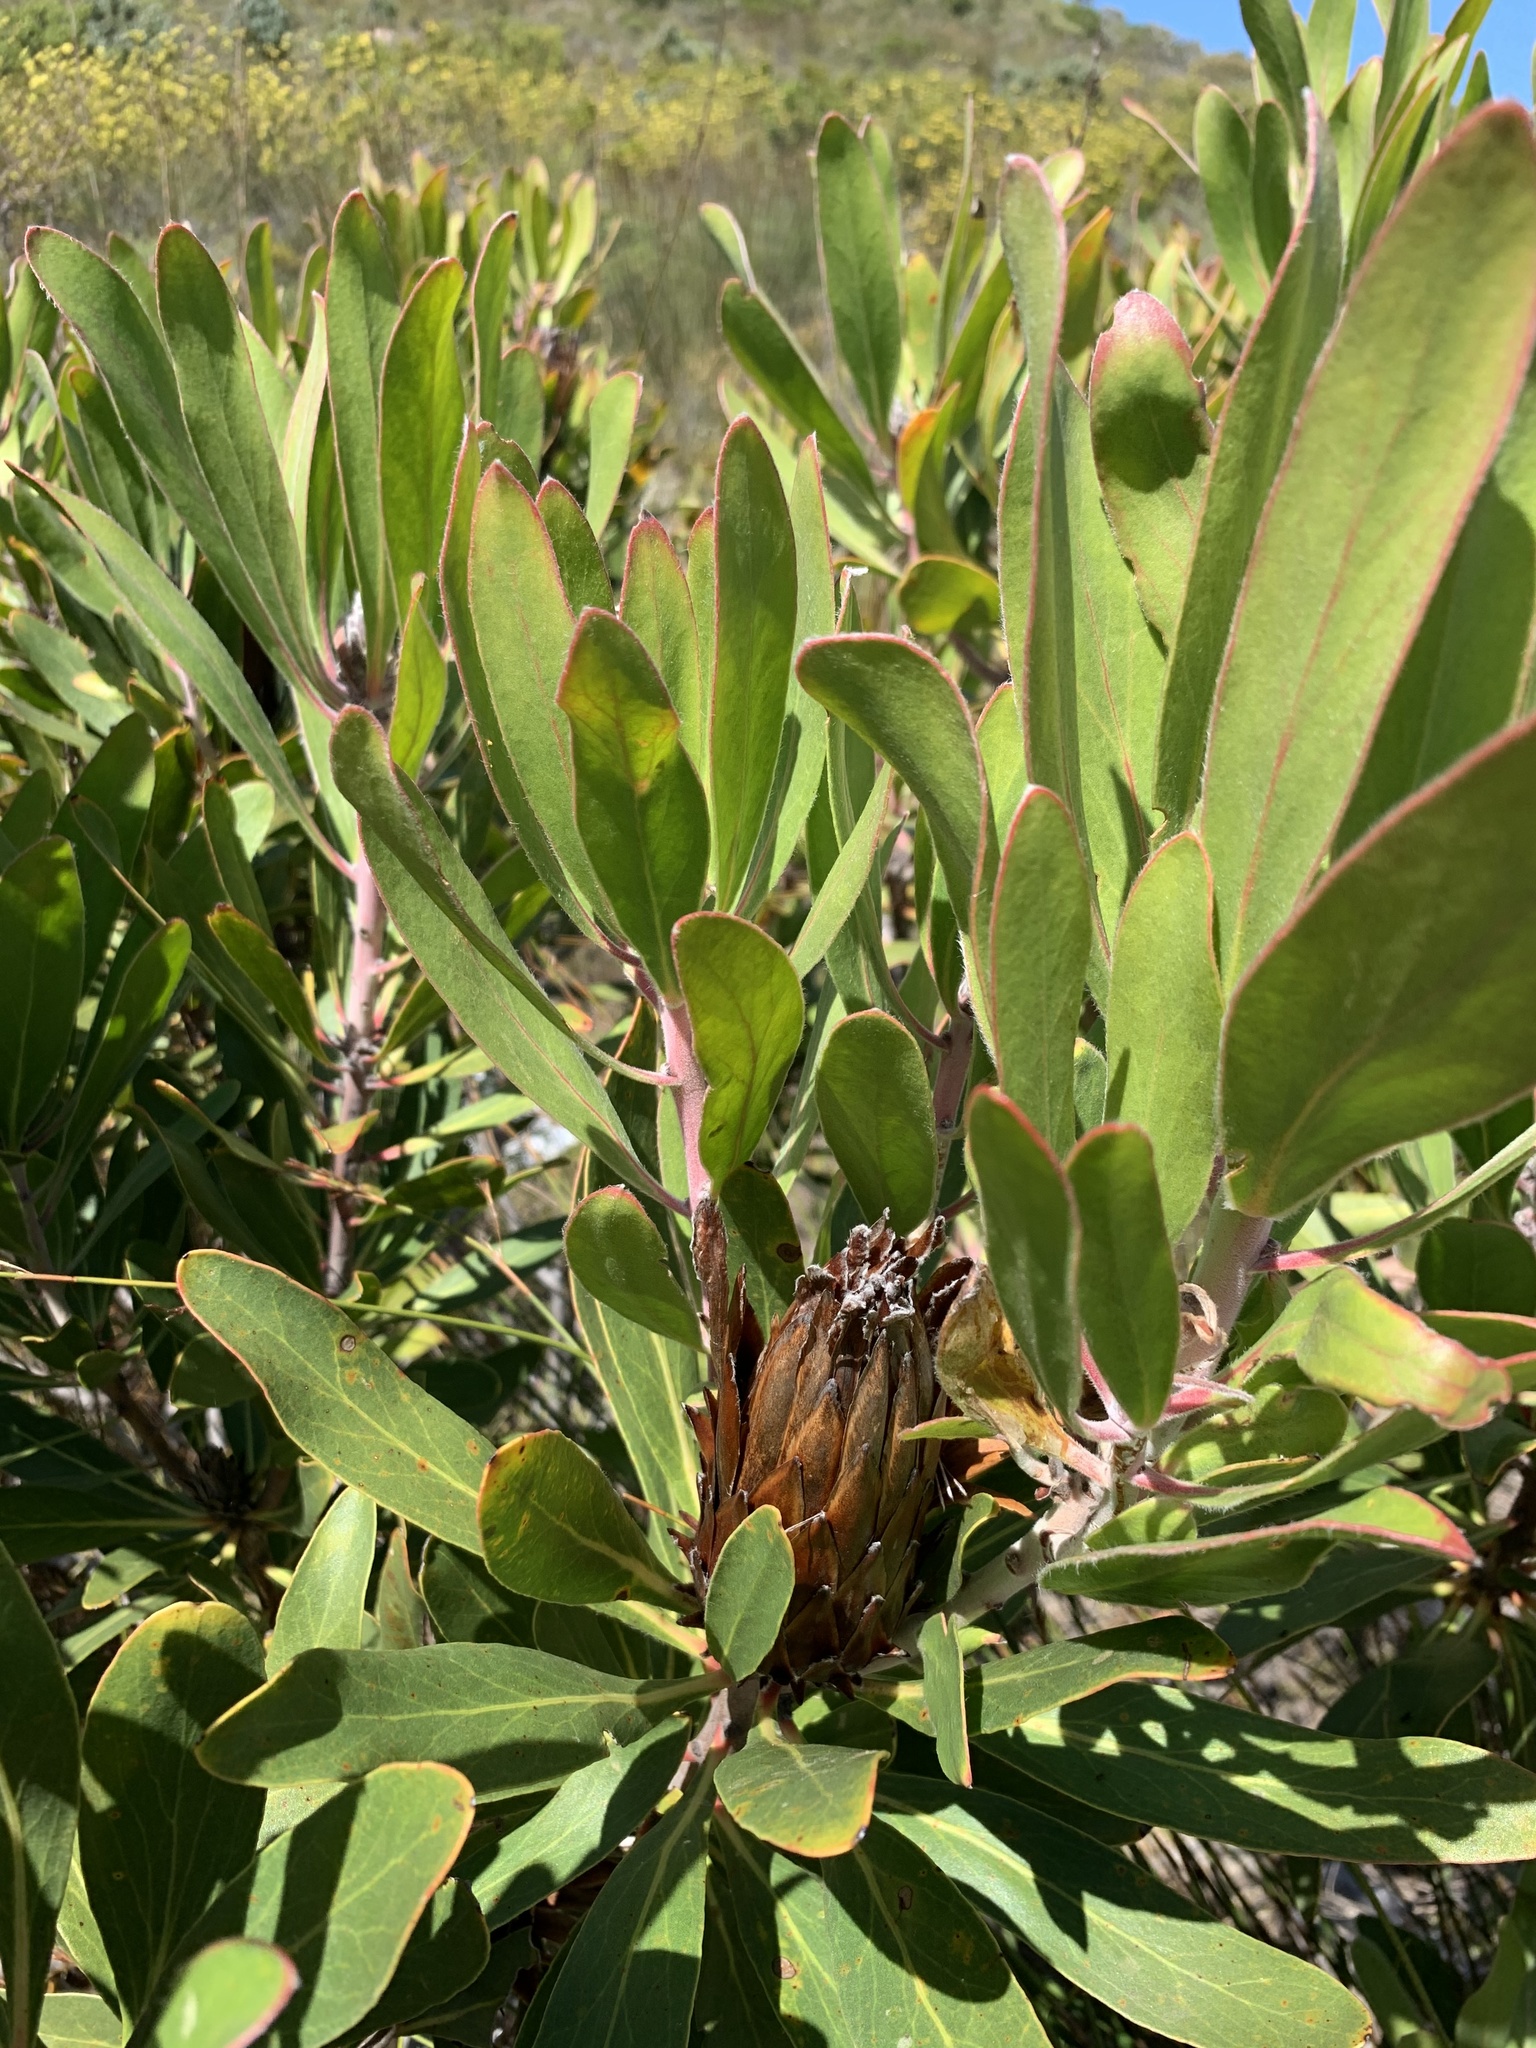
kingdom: Plantae
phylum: Tracheophyta
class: Magnoliopsida
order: Proteales
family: Proteaceae
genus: Protea
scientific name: Protea obtusifolia
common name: Bredasdorp sugarbush
